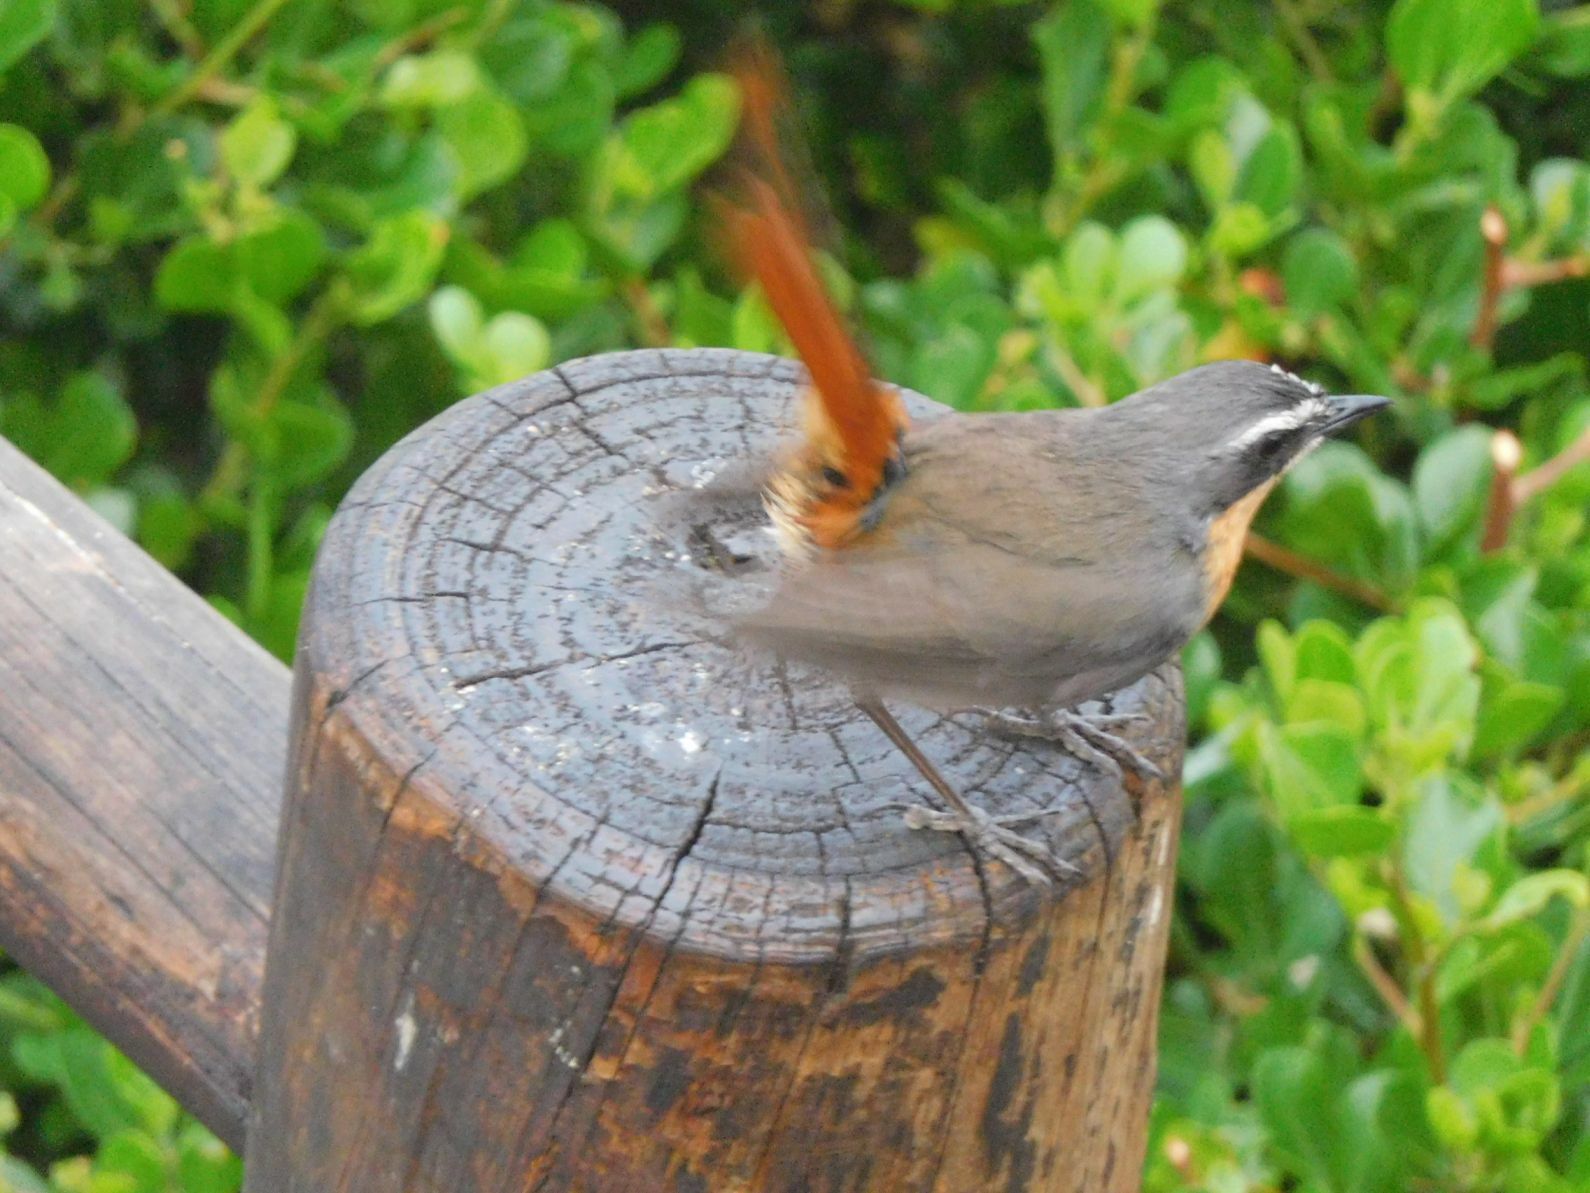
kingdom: Animalia
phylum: Chordata
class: Aves
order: Passeriformes
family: Muscicapidae
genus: Cossypha
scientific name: Cossypha caffra
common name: Cape robin-chat
